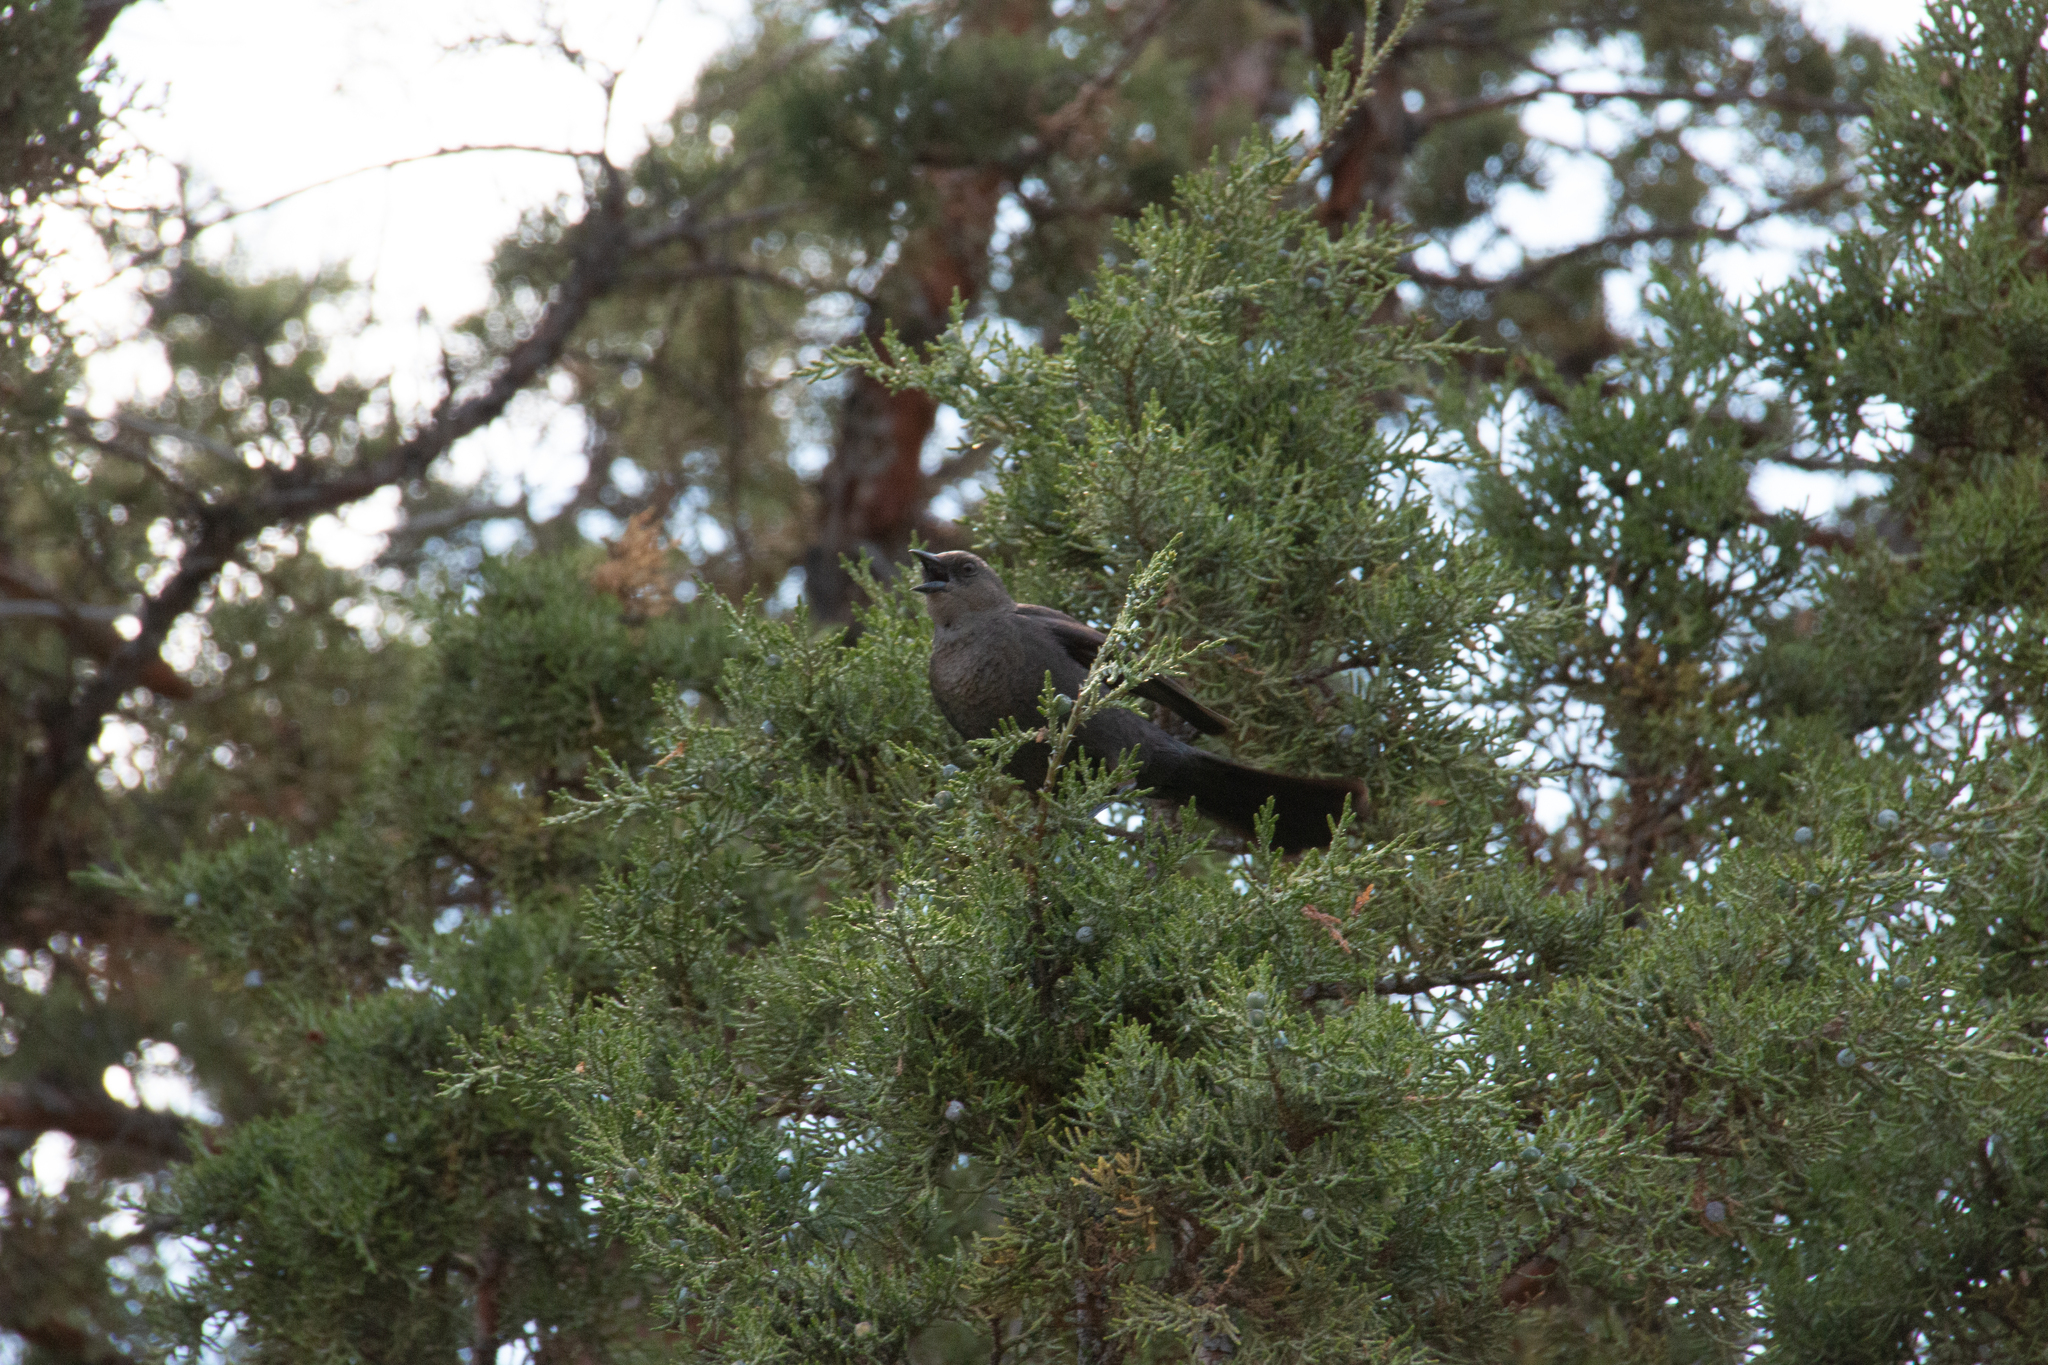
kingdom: Animalia
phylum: Chordata
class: Aves
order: Passeriformes
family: Icteridae
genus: Euphagus
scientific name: Euphagus cyanocephalus
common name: Brewer's blackbird
